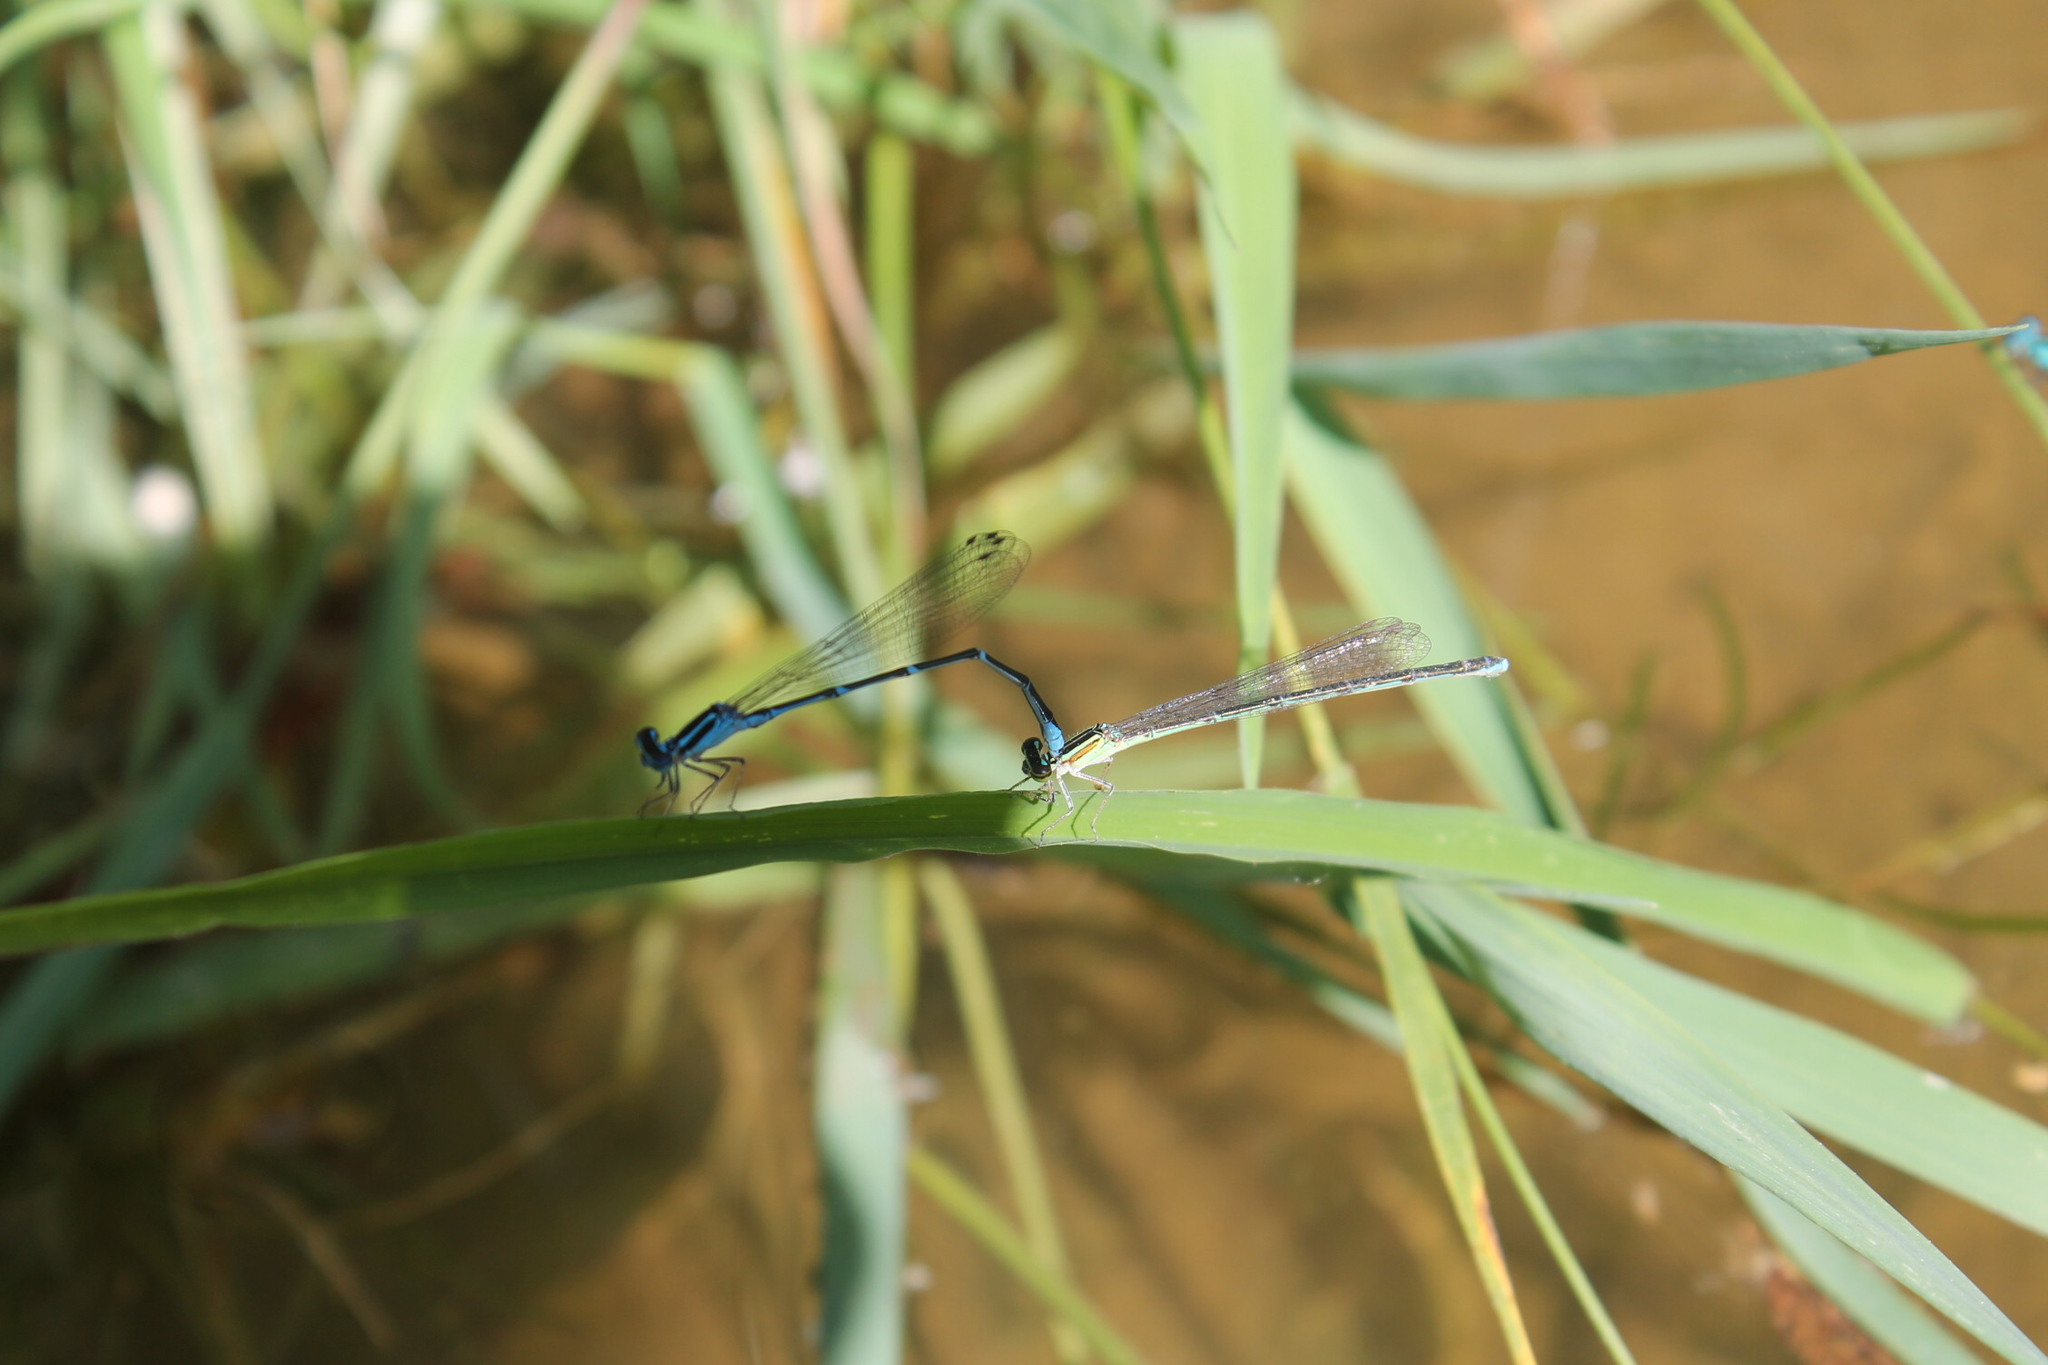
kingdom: Animalia
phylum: Arthropoda
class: Insecta
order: Odonata
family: Coenagrionidae
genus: Enallagma
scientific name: Enallagma exsulans
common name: Stream bluet
